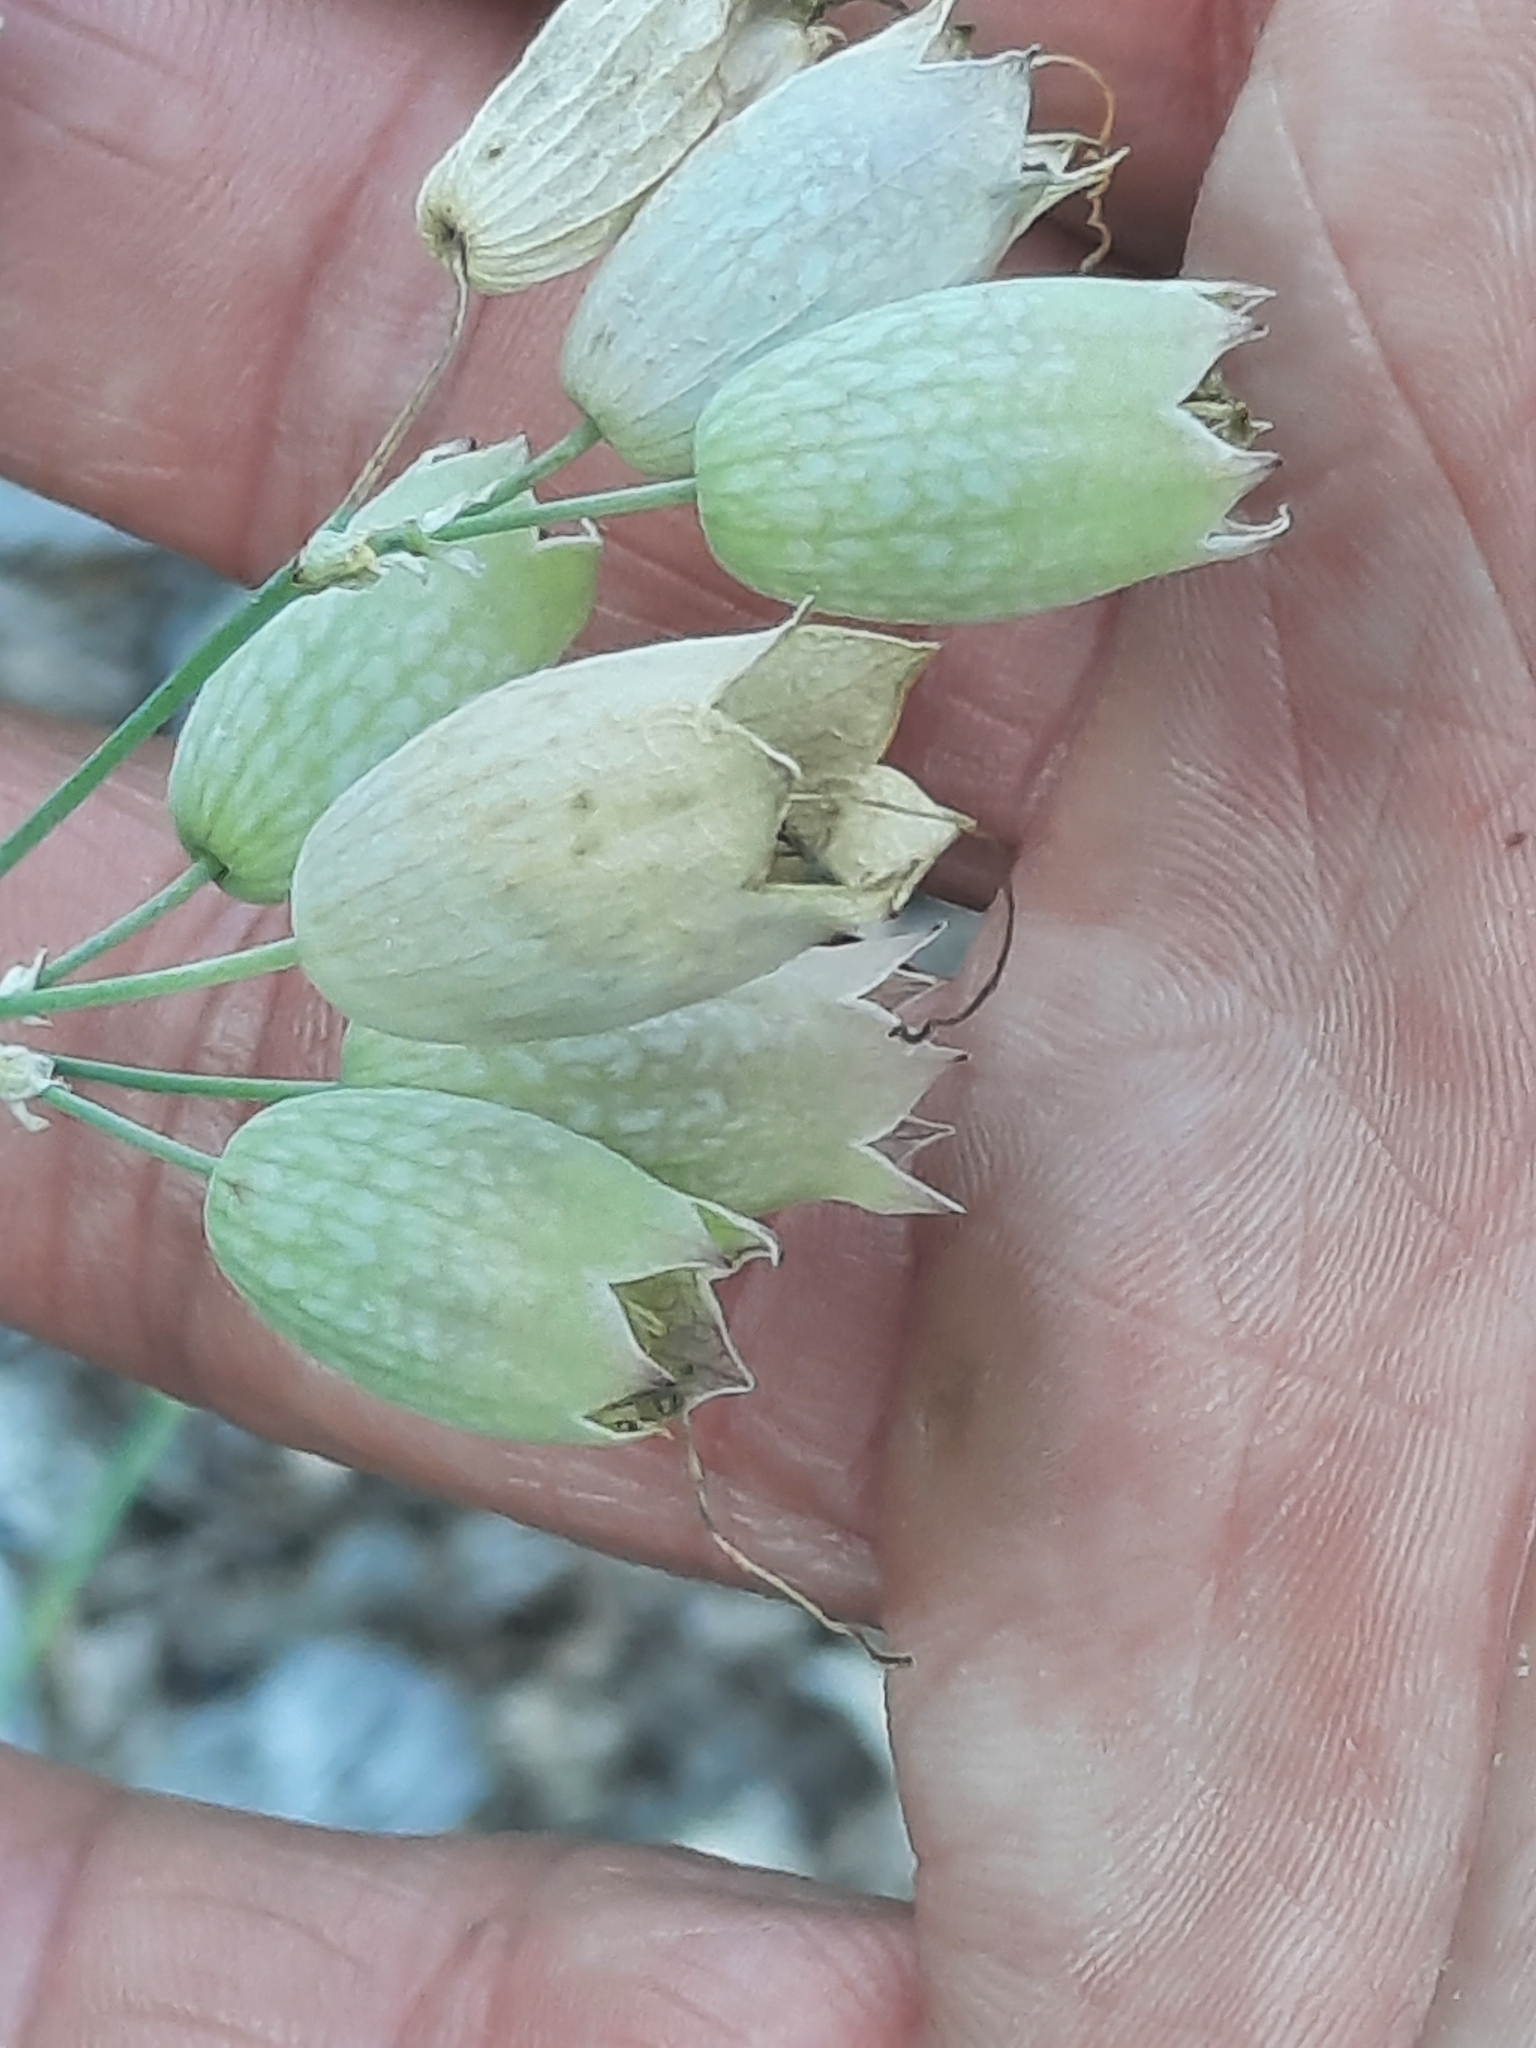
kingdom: Plantae
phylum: Tracheophyta
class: Magnoliopsida
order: Caryophyllales
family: Caryophyllaceae
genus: Silene
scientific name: Silene vulgaris
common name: Bladder campion
